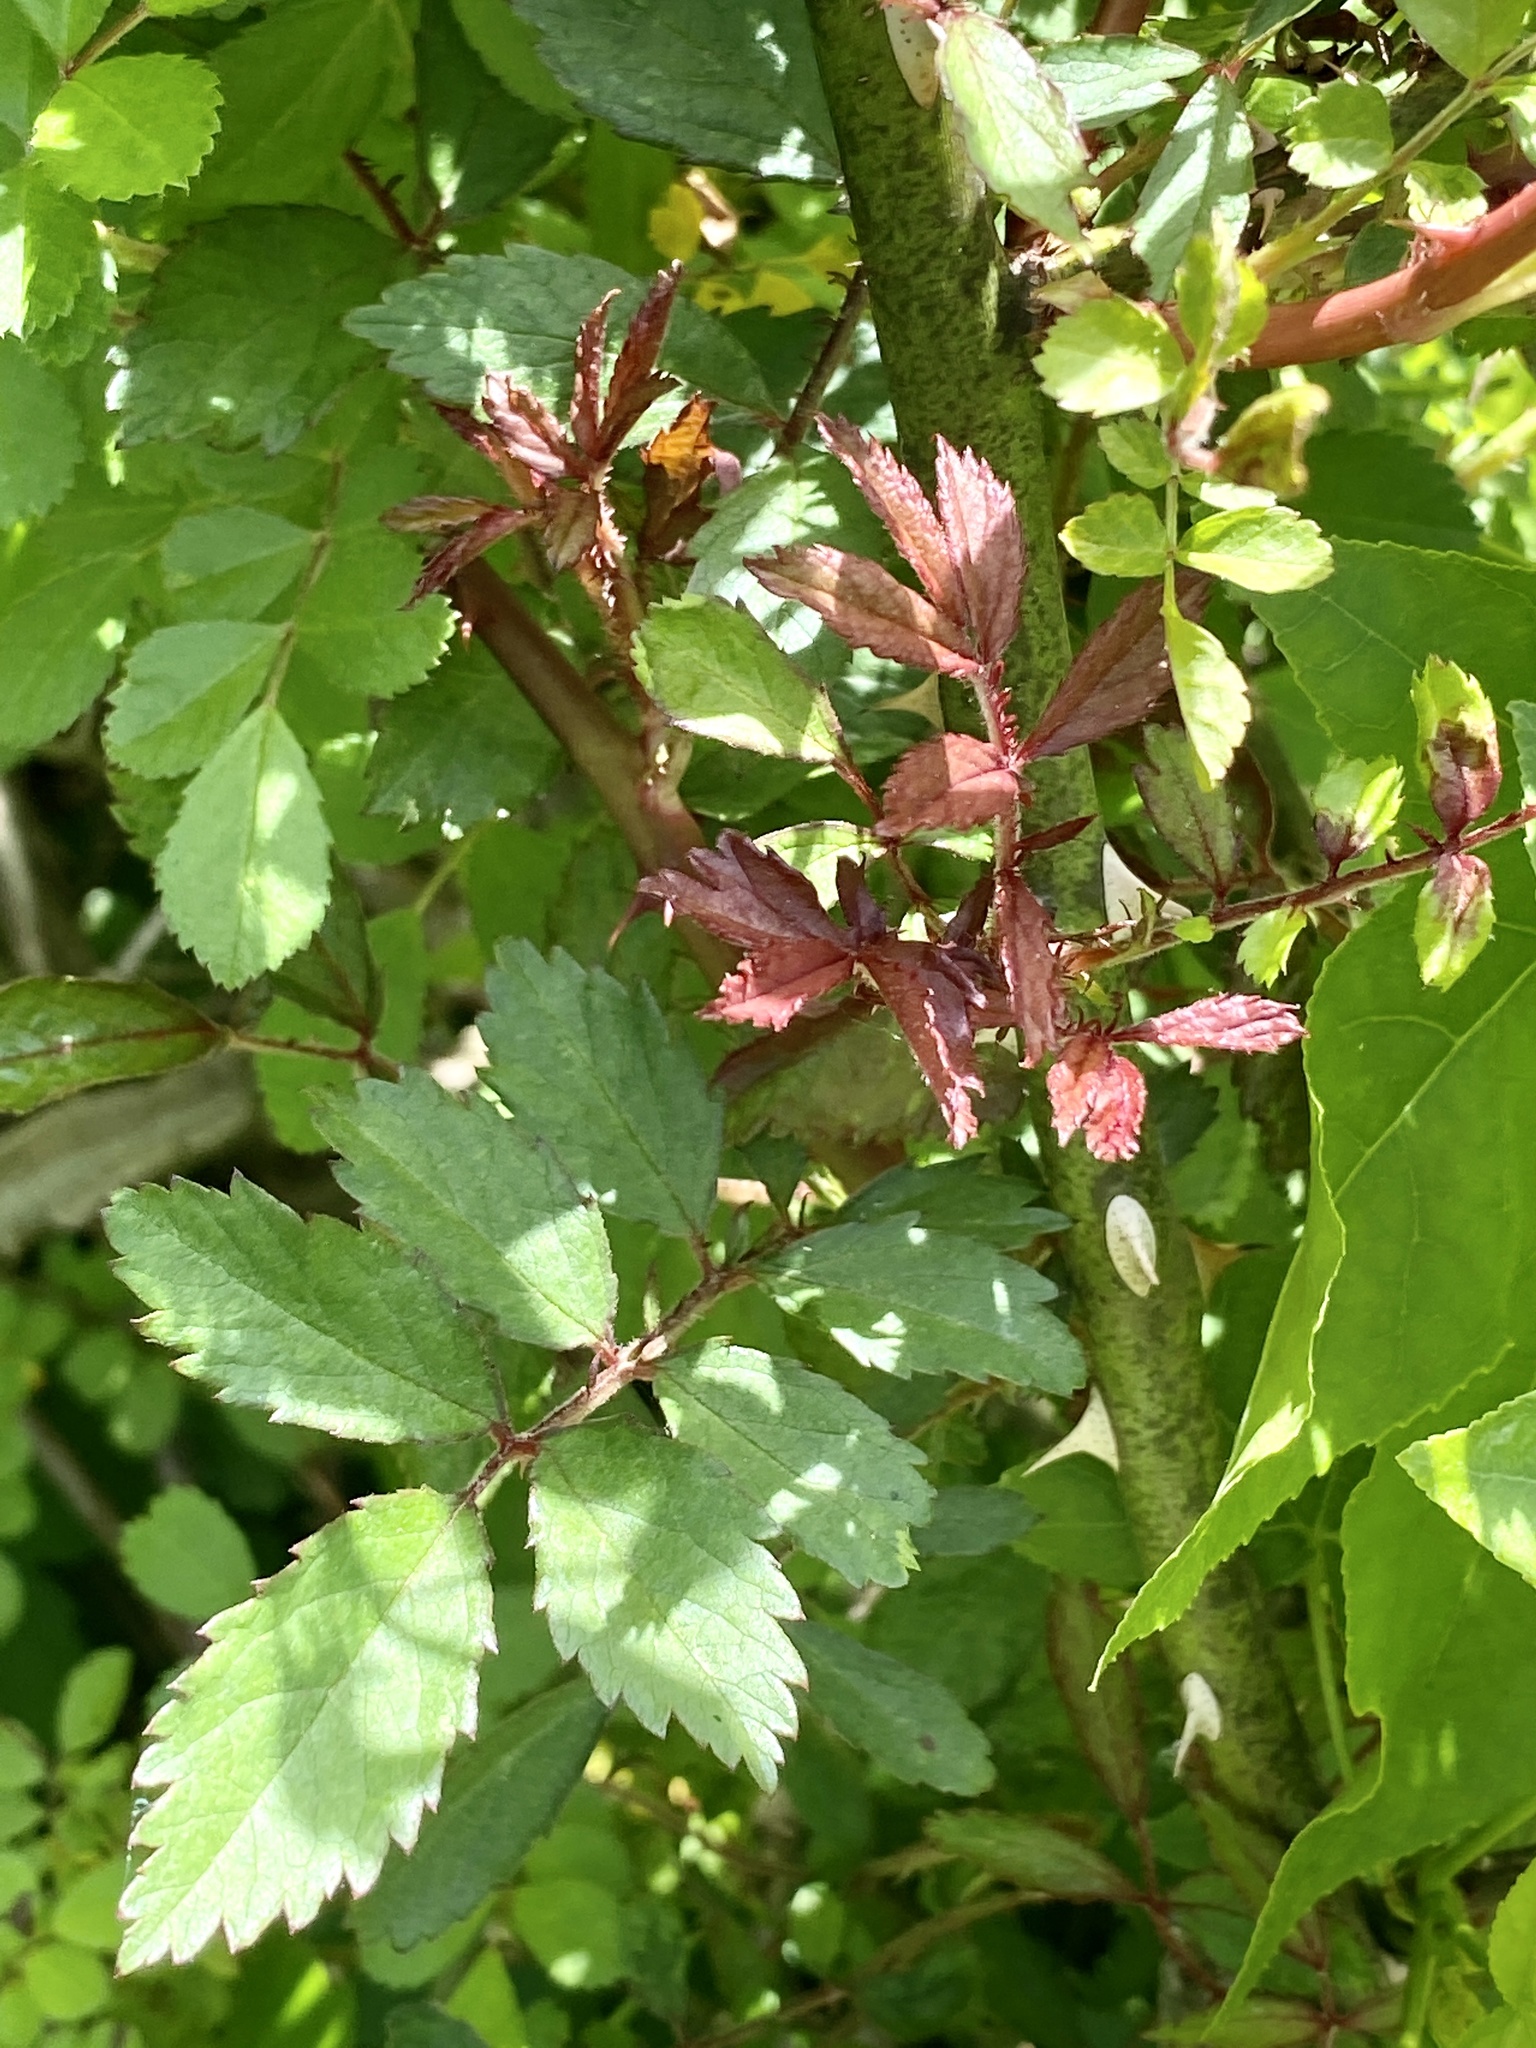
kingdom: Viruses
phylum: Negarnaviricota
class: Ellioviricetes
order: Bunyavirales
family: Fimoviridae
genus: Emaravirus
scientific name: Emaravirus rosae
